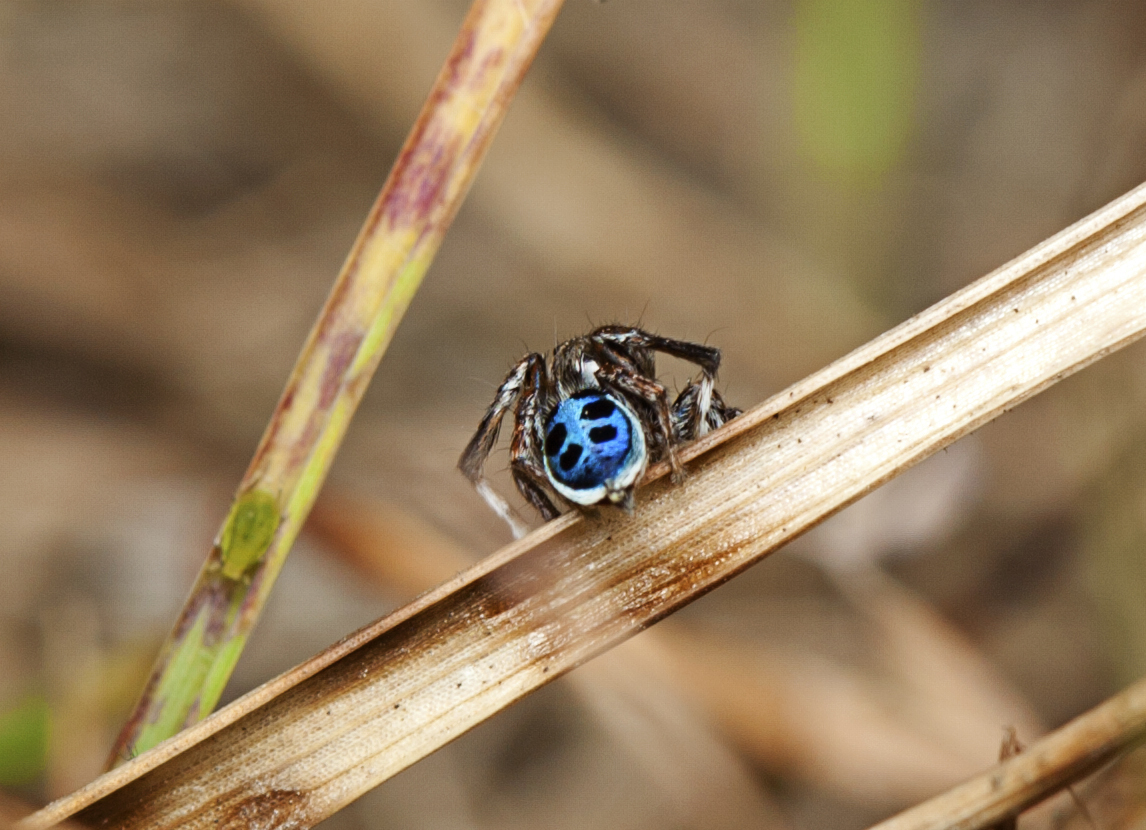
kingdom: Animalia
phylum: Arthropoda
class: Arachnida
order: Araneae
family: Salticidae
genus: Maratus
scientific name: Maratus nigromaculatus
